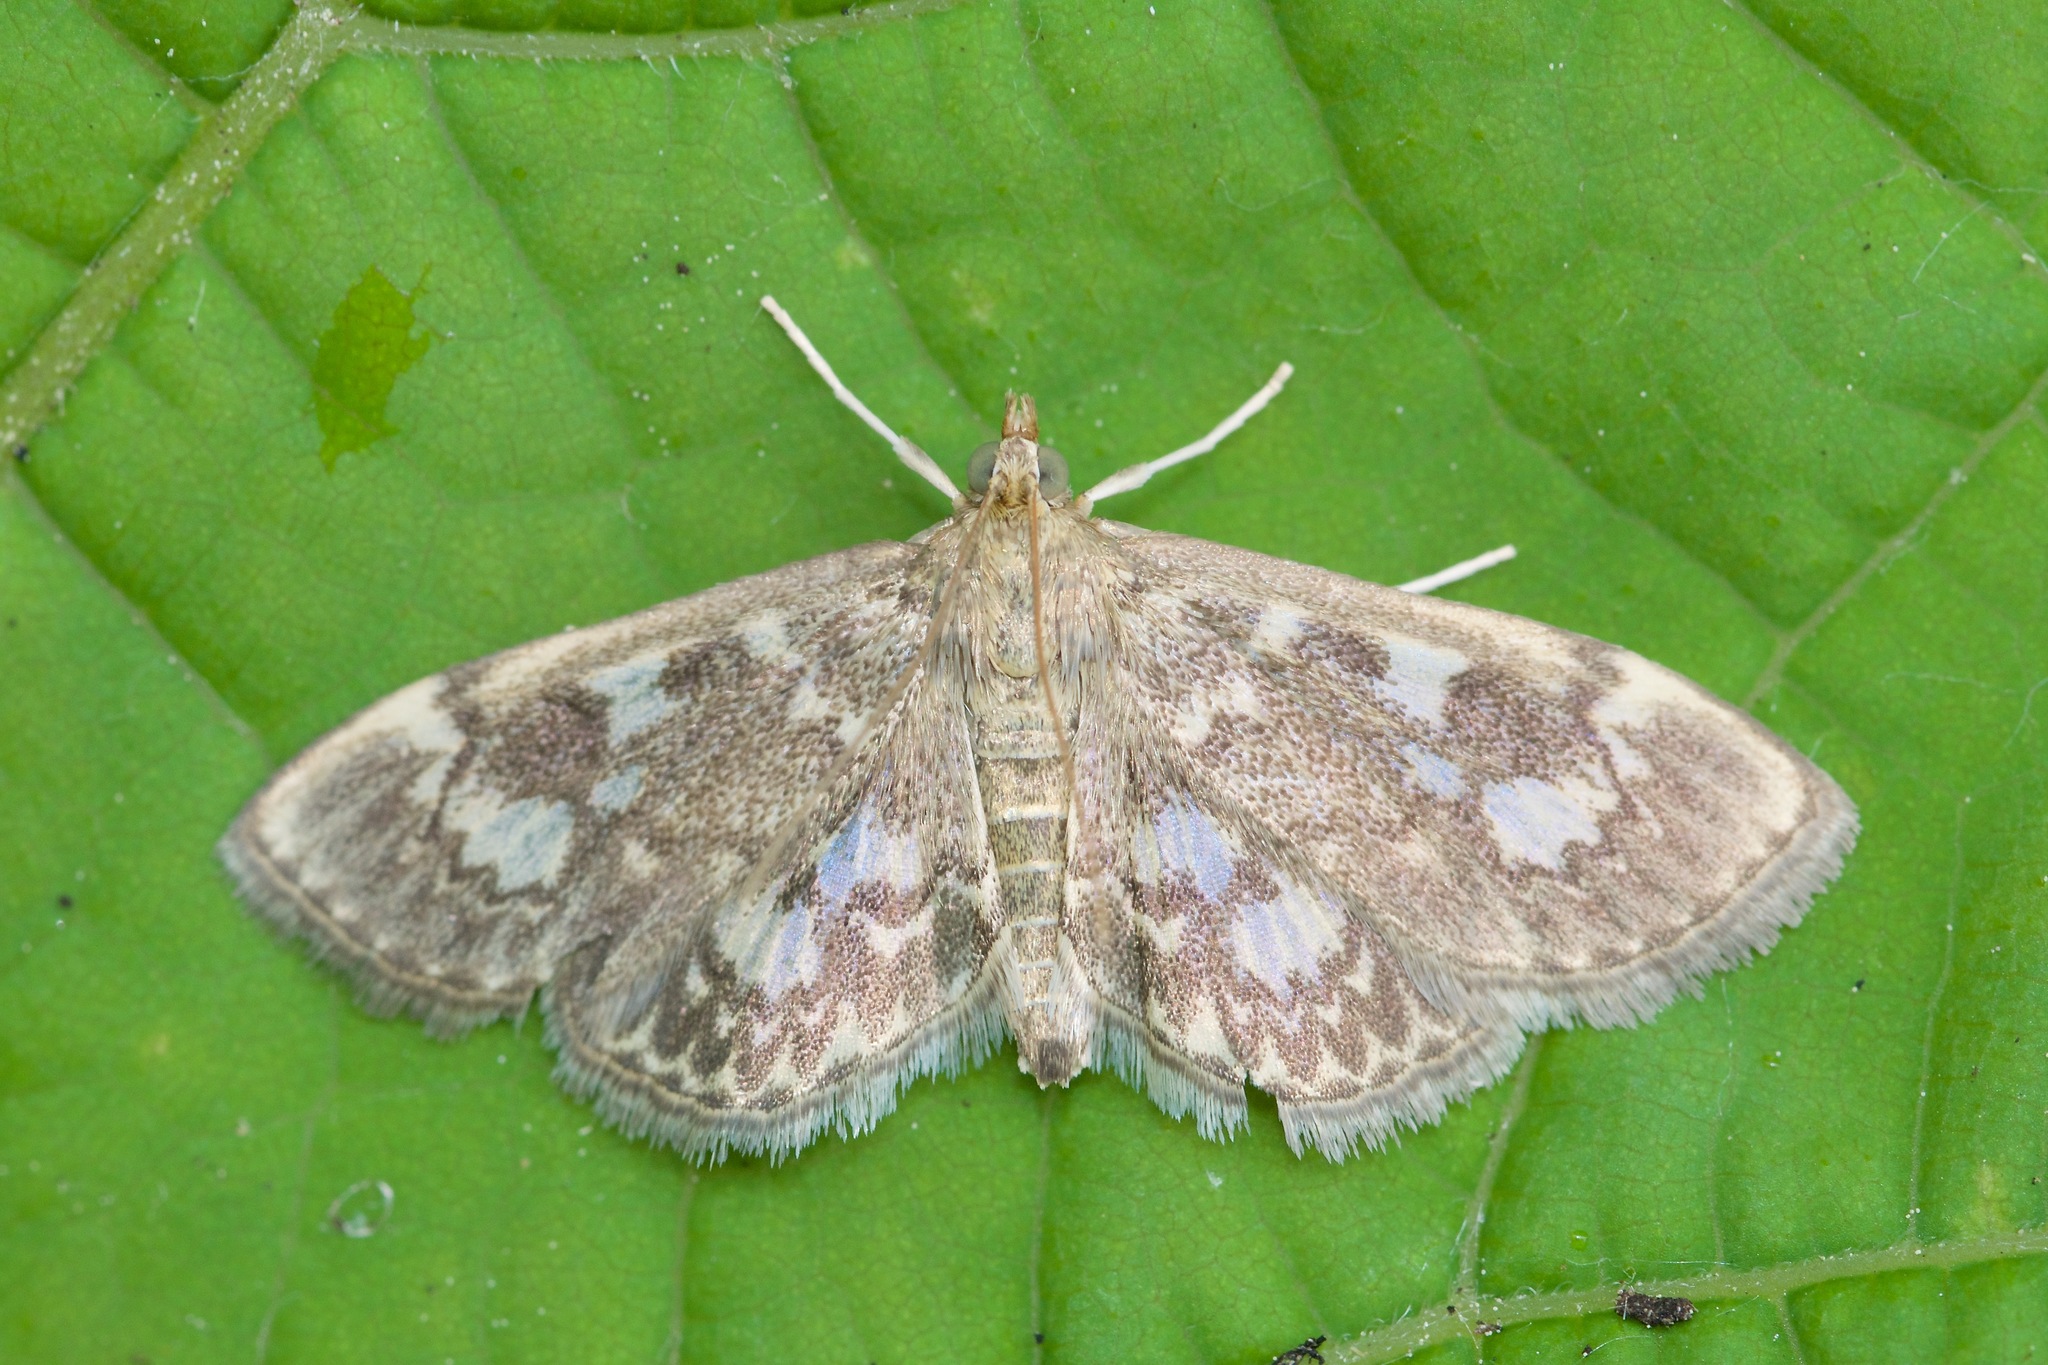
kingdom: Animalia
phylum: Arthropoda
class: Insecta
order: Lepidoptera
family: Crambidae
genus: Anania
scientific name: Anania tertialis
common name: Crowned phylctaenia moth
